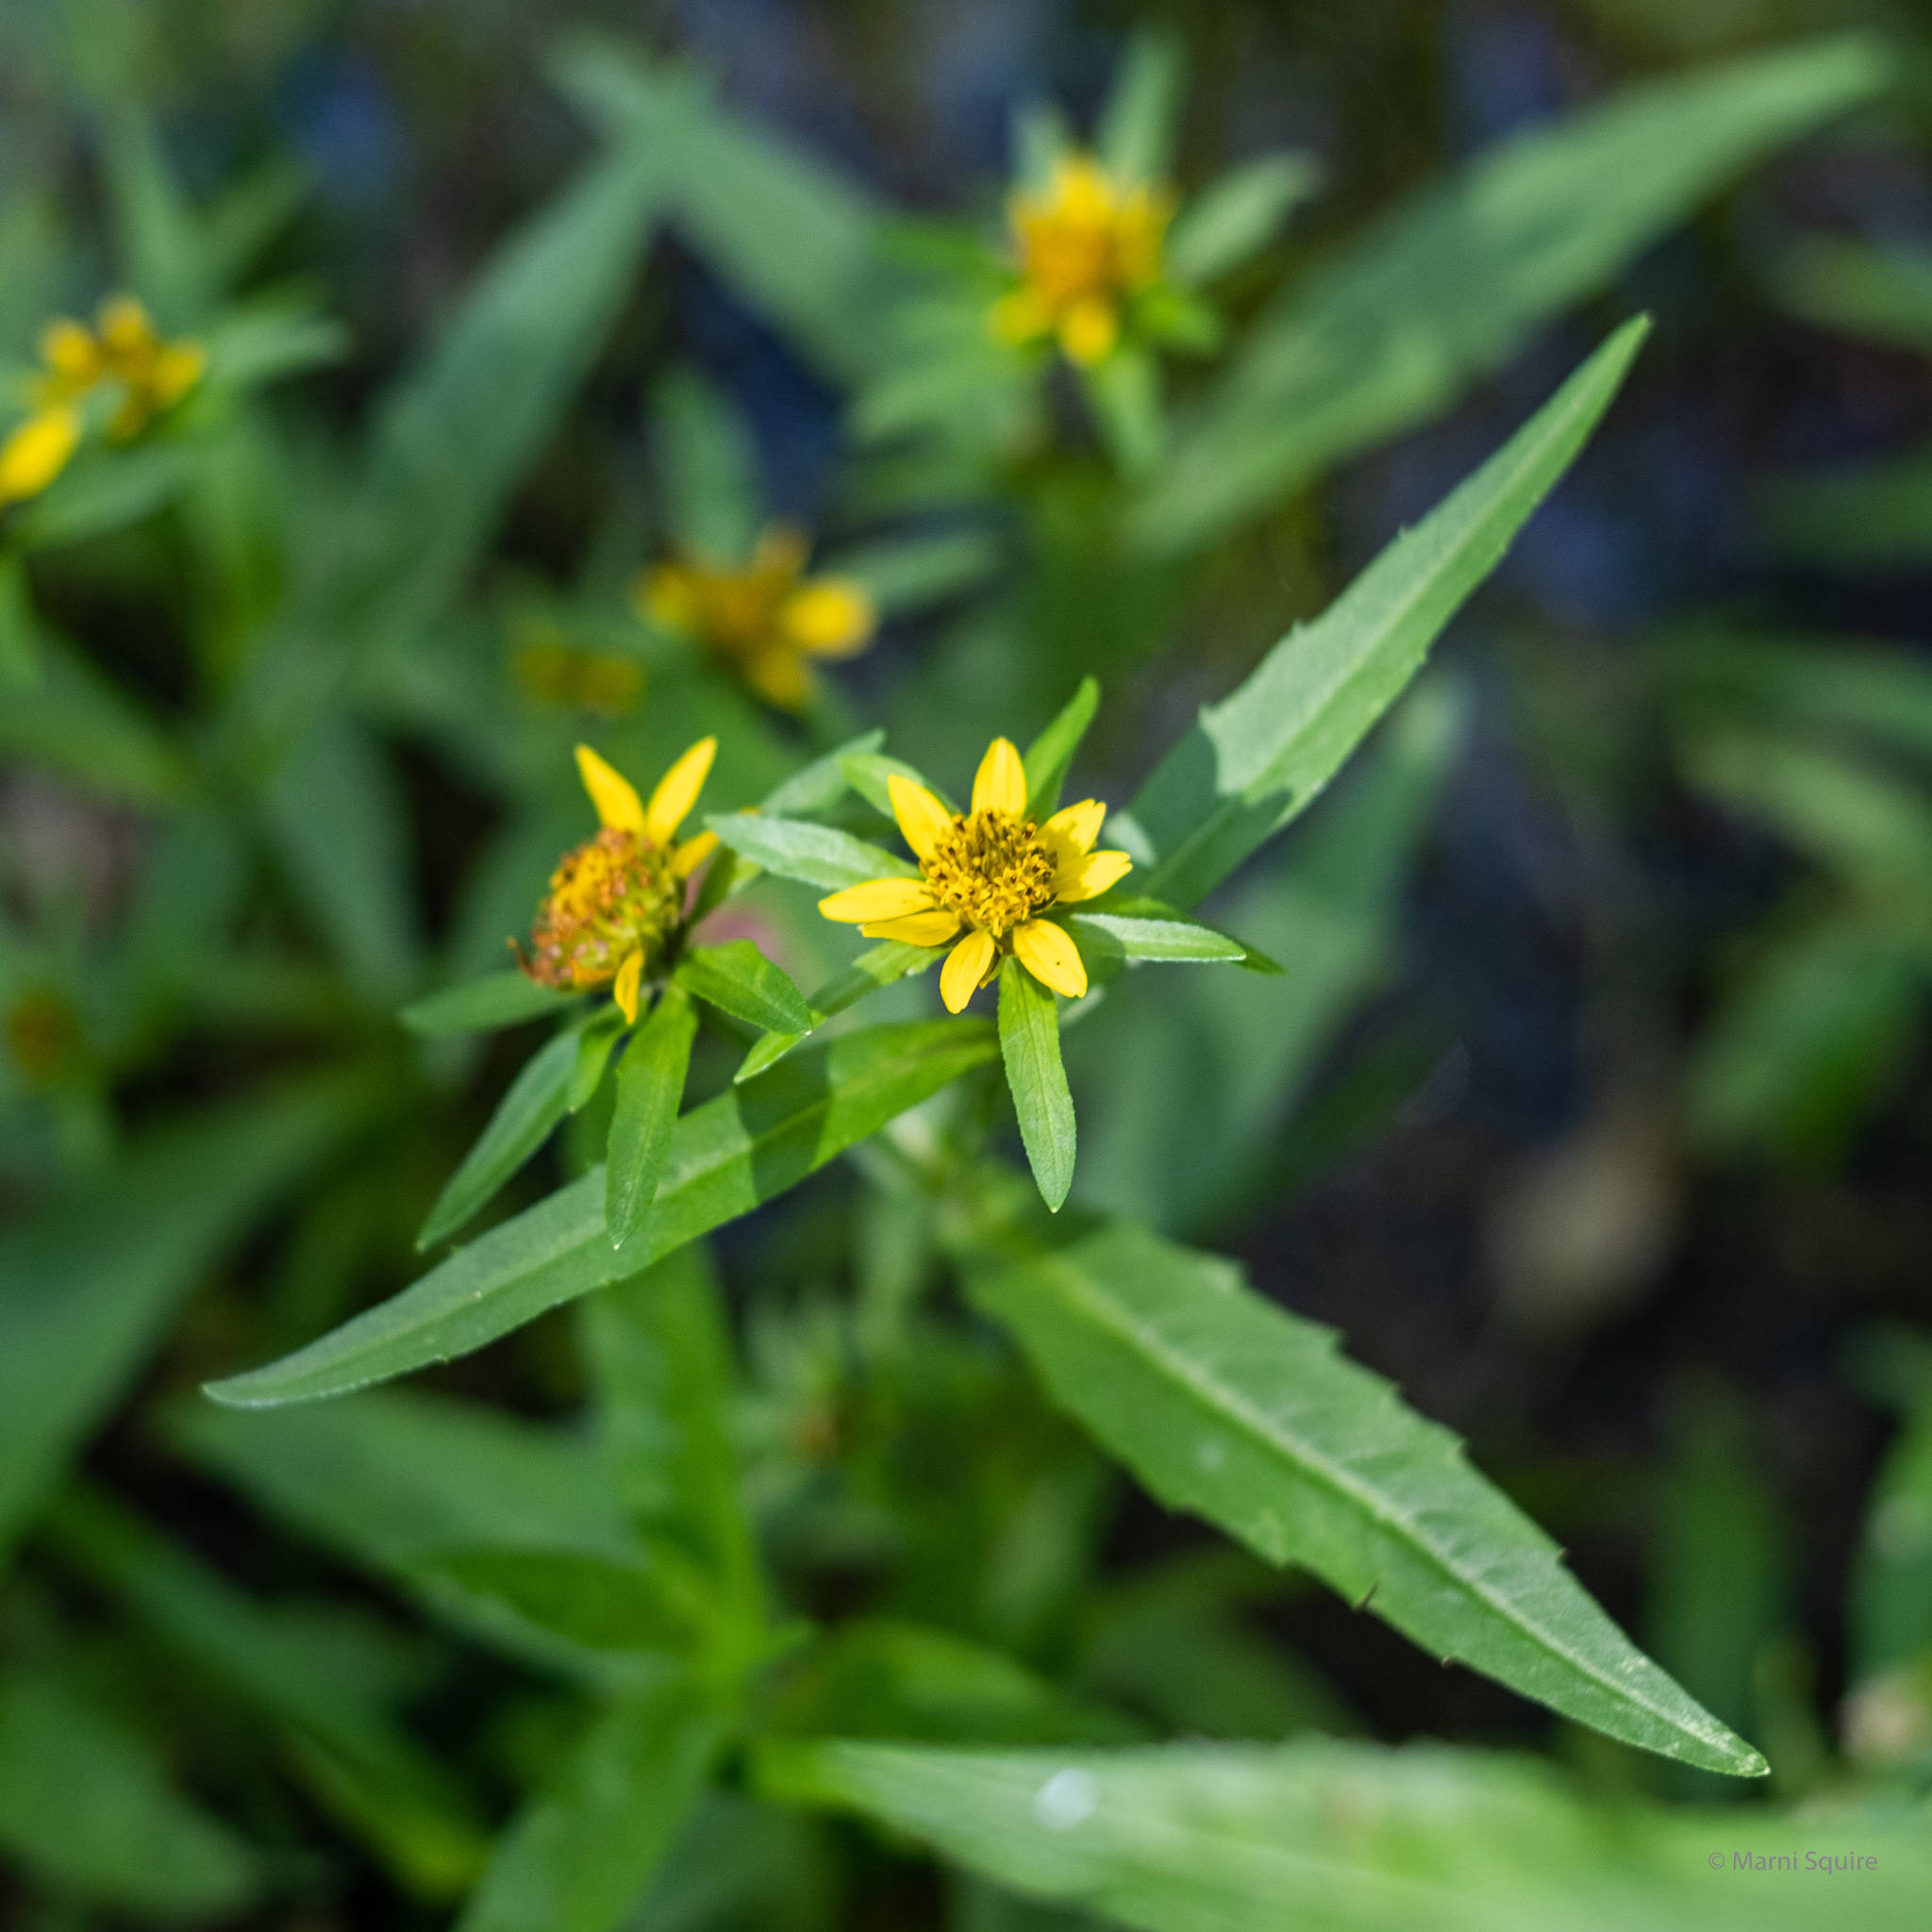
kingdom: Plantae
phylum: Tracheophyta
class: Magnoliopsida
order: Asterales
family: Asteraceae
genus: Bidens
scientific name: Bidens frondosa
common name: Beggarticks
